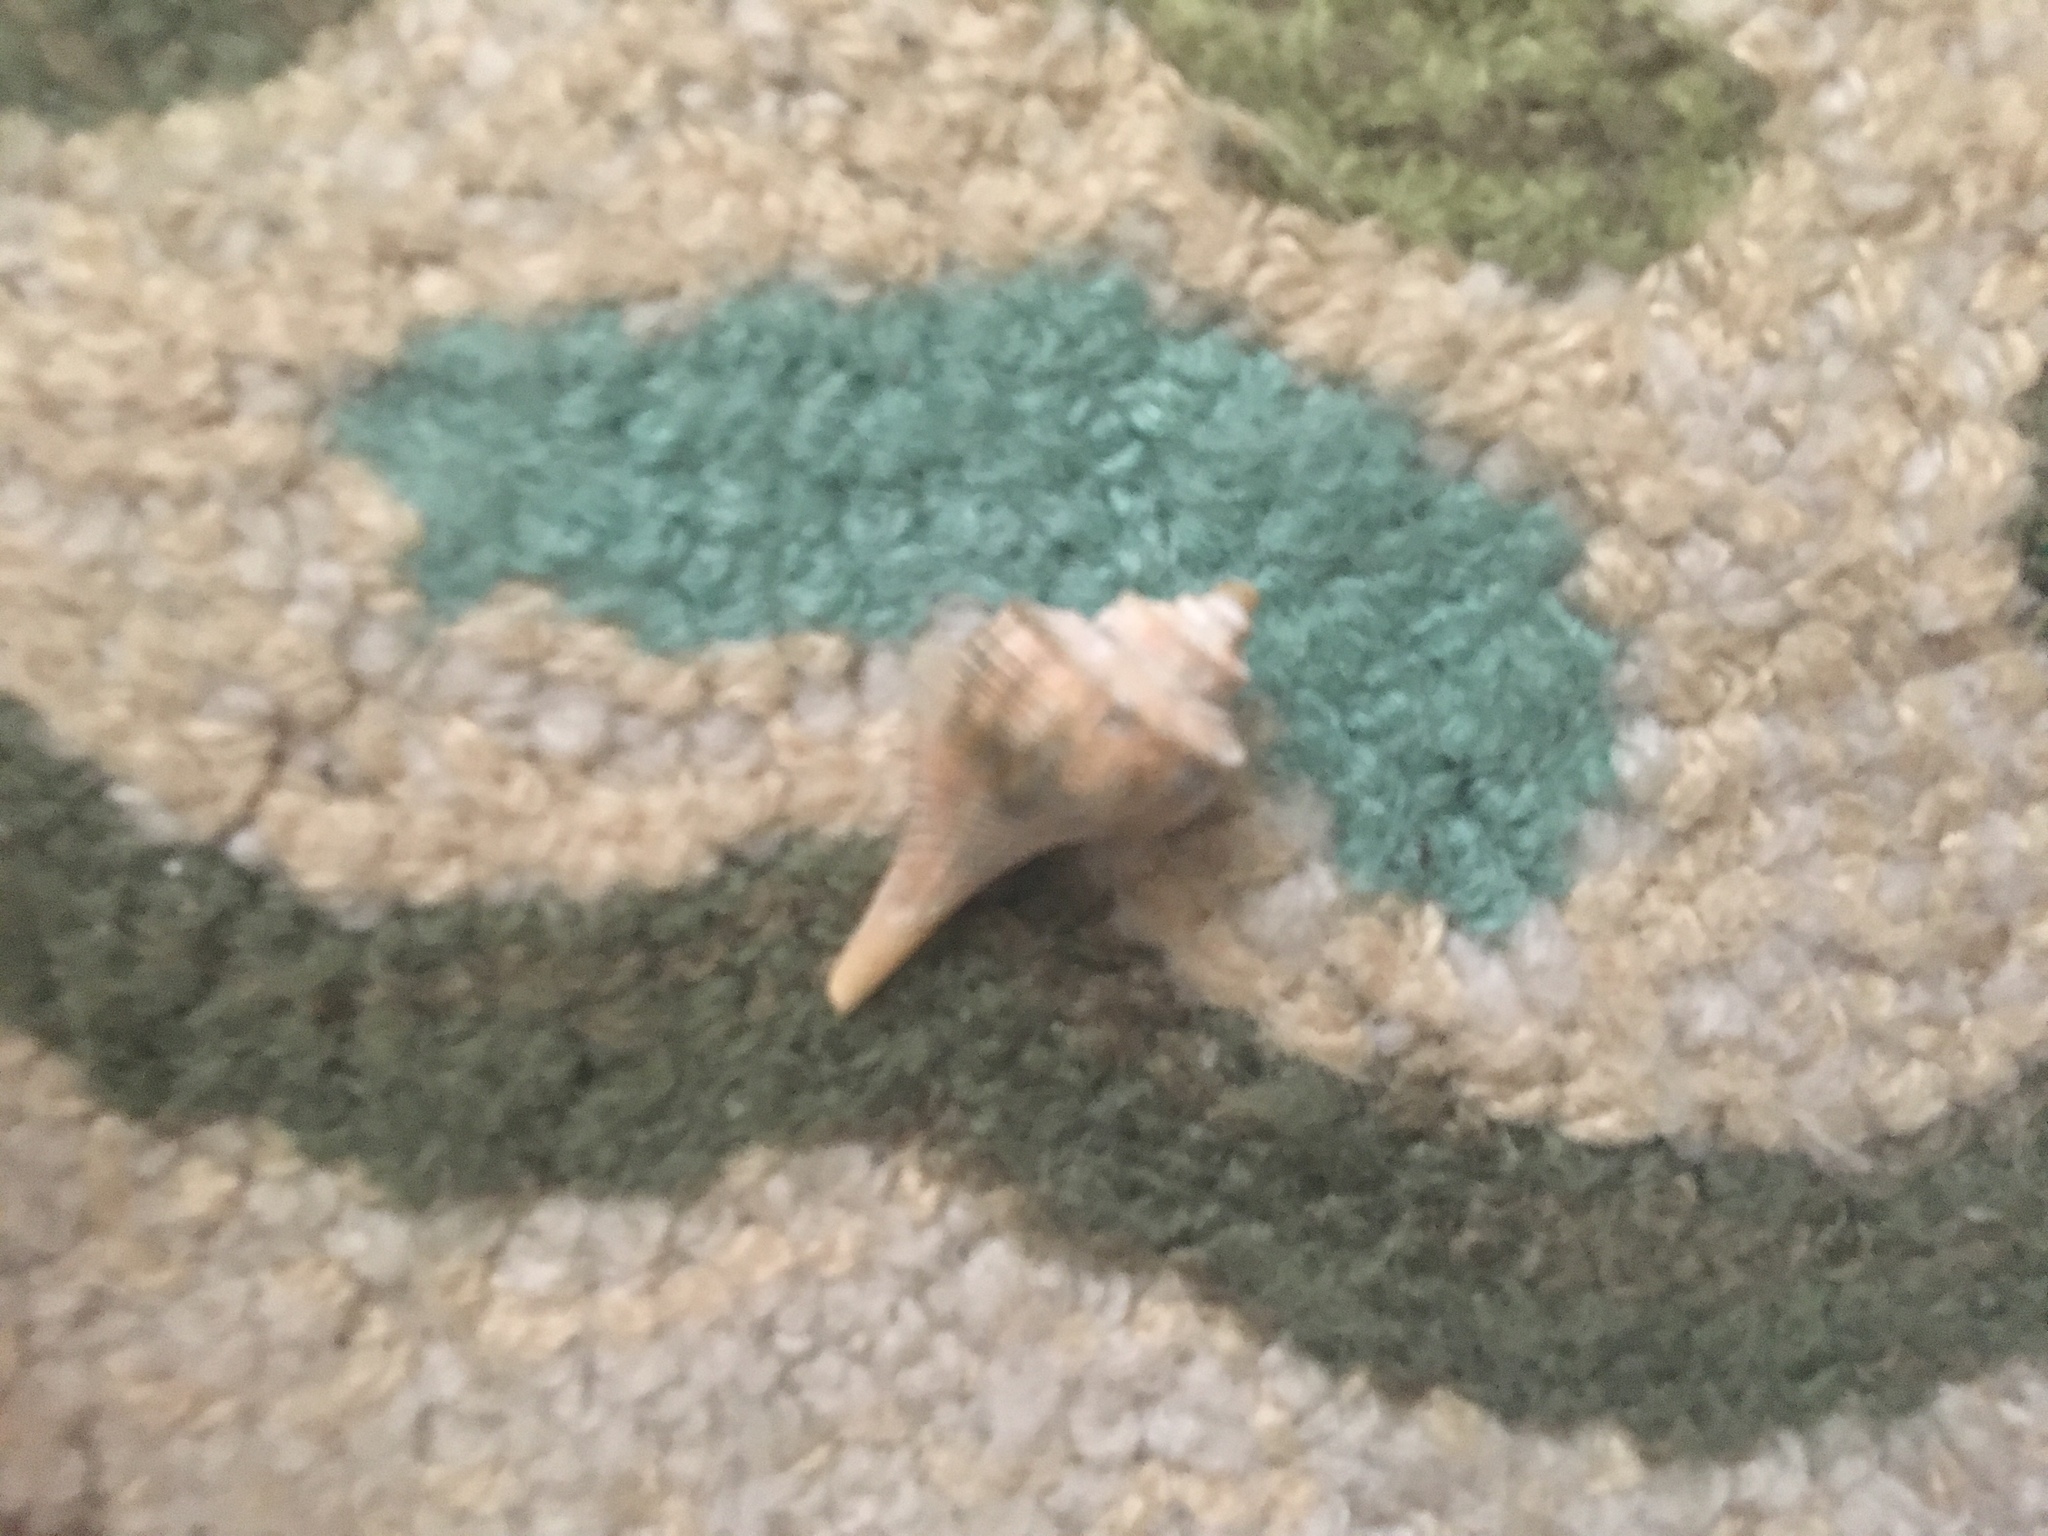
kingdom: Animalia
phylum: Mollusca
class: Gastropoda
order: Neogastropoda
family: Busyconidae
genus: Busycotypus
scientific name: Busycotypus canaliculatus
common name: Channeled whelk
